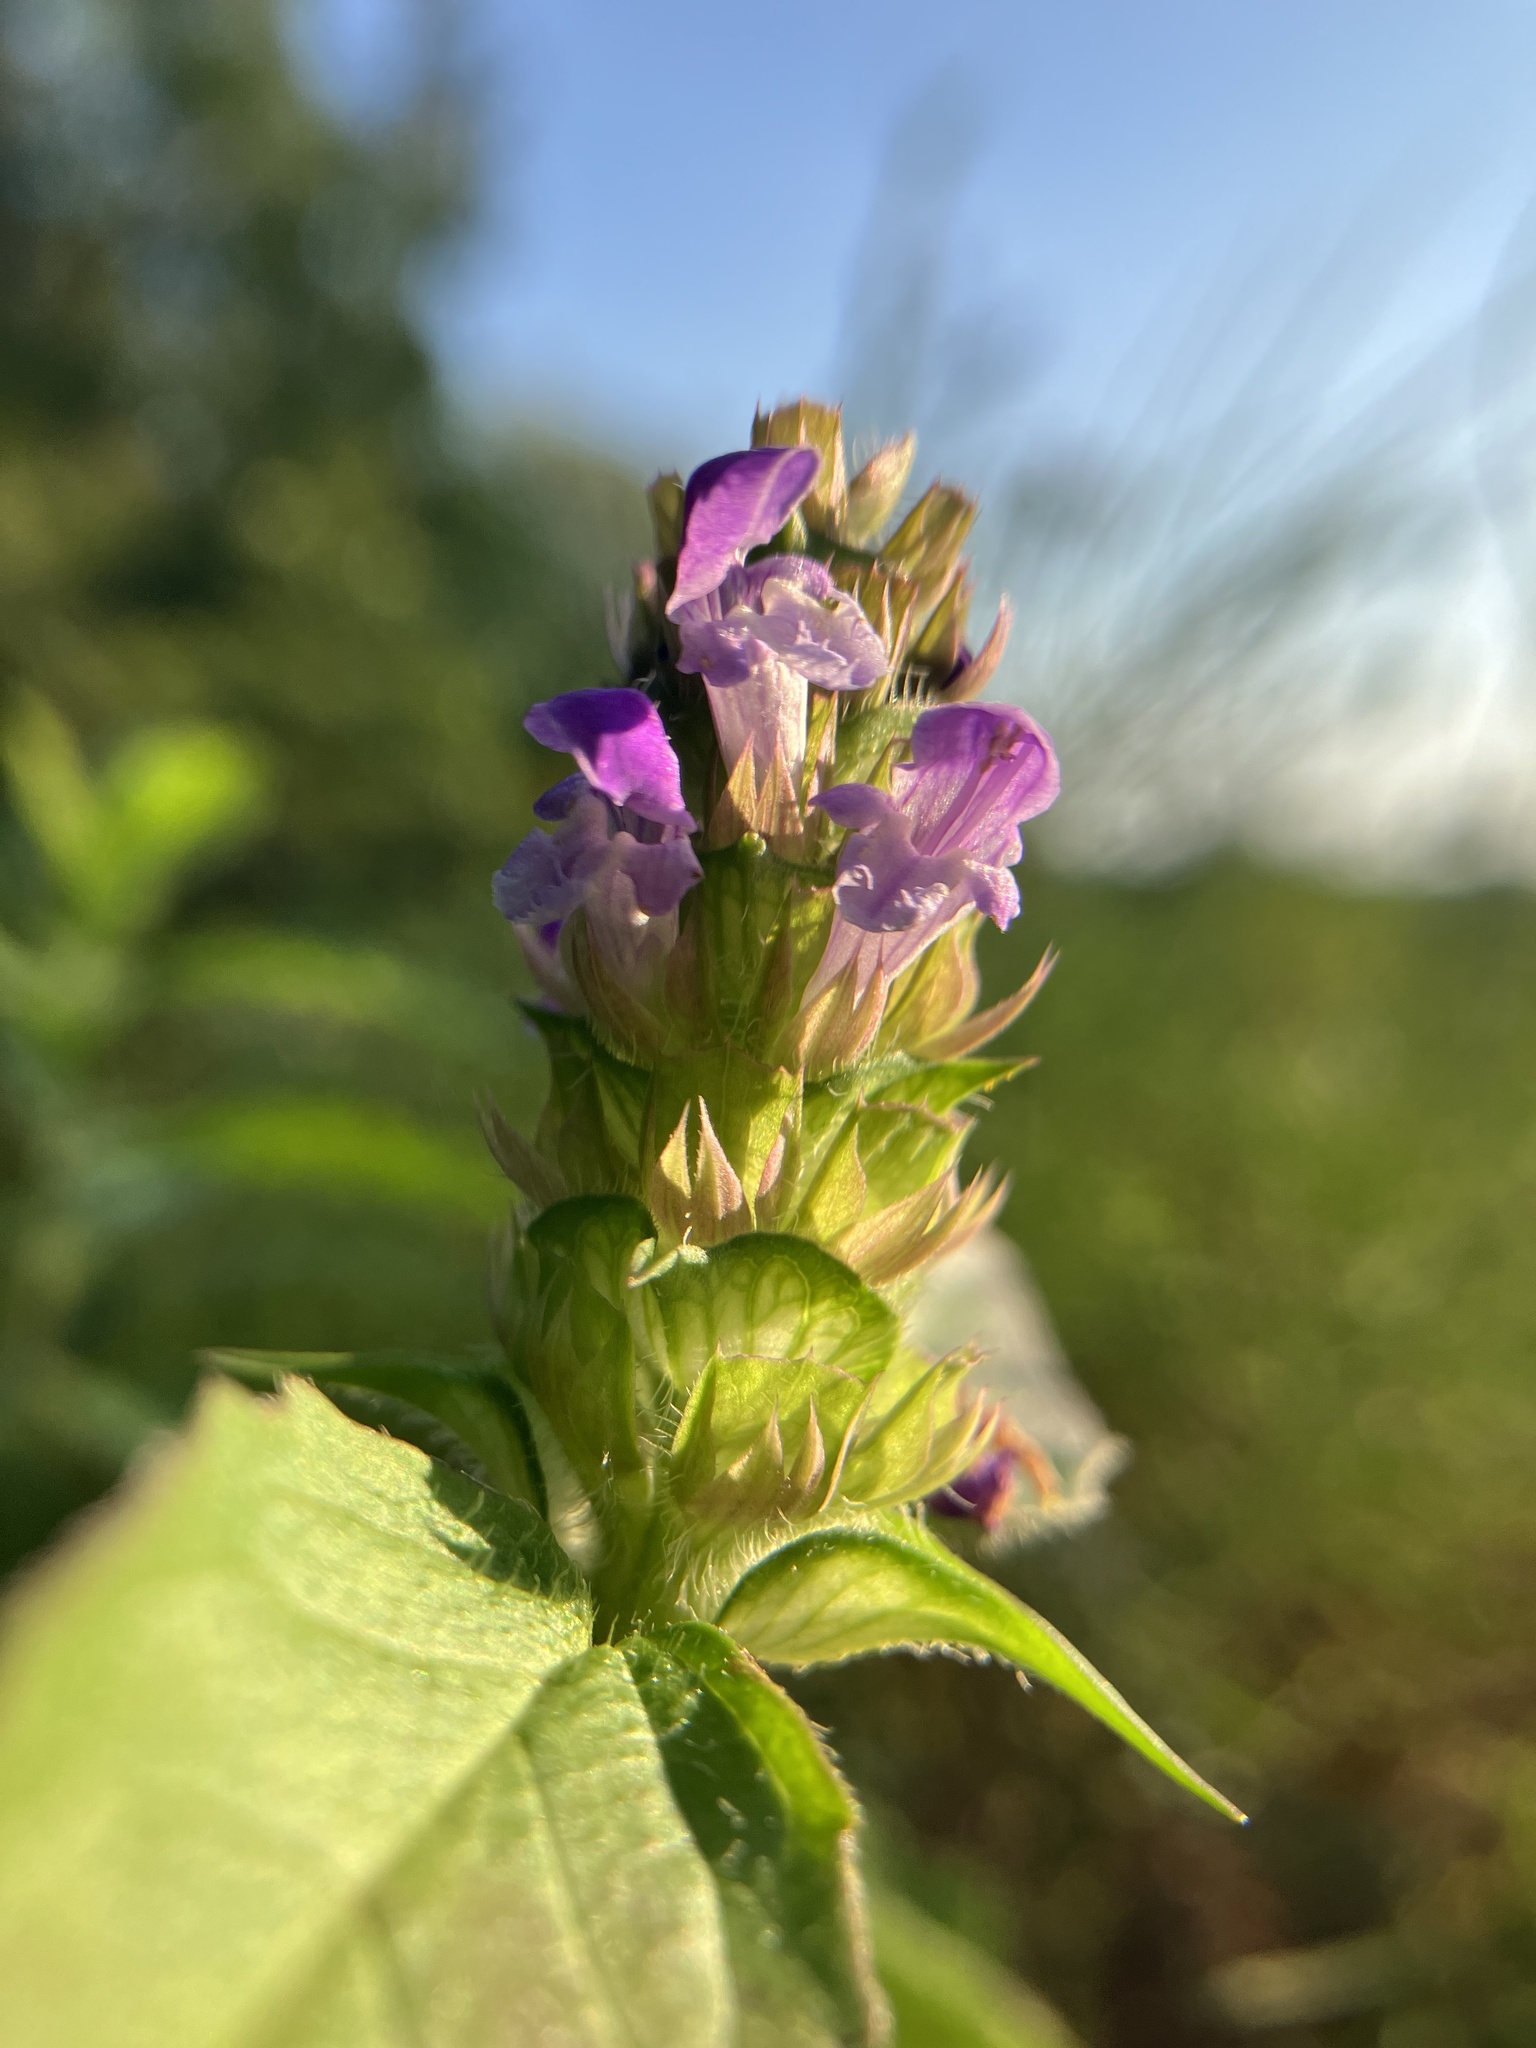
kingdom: Plantae
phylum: Tracheophyta
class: Magnoliopsida
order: Lamiales
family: Lamiaceae
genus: Prunella
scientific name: Prunella vulgaris
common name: Heal-all
